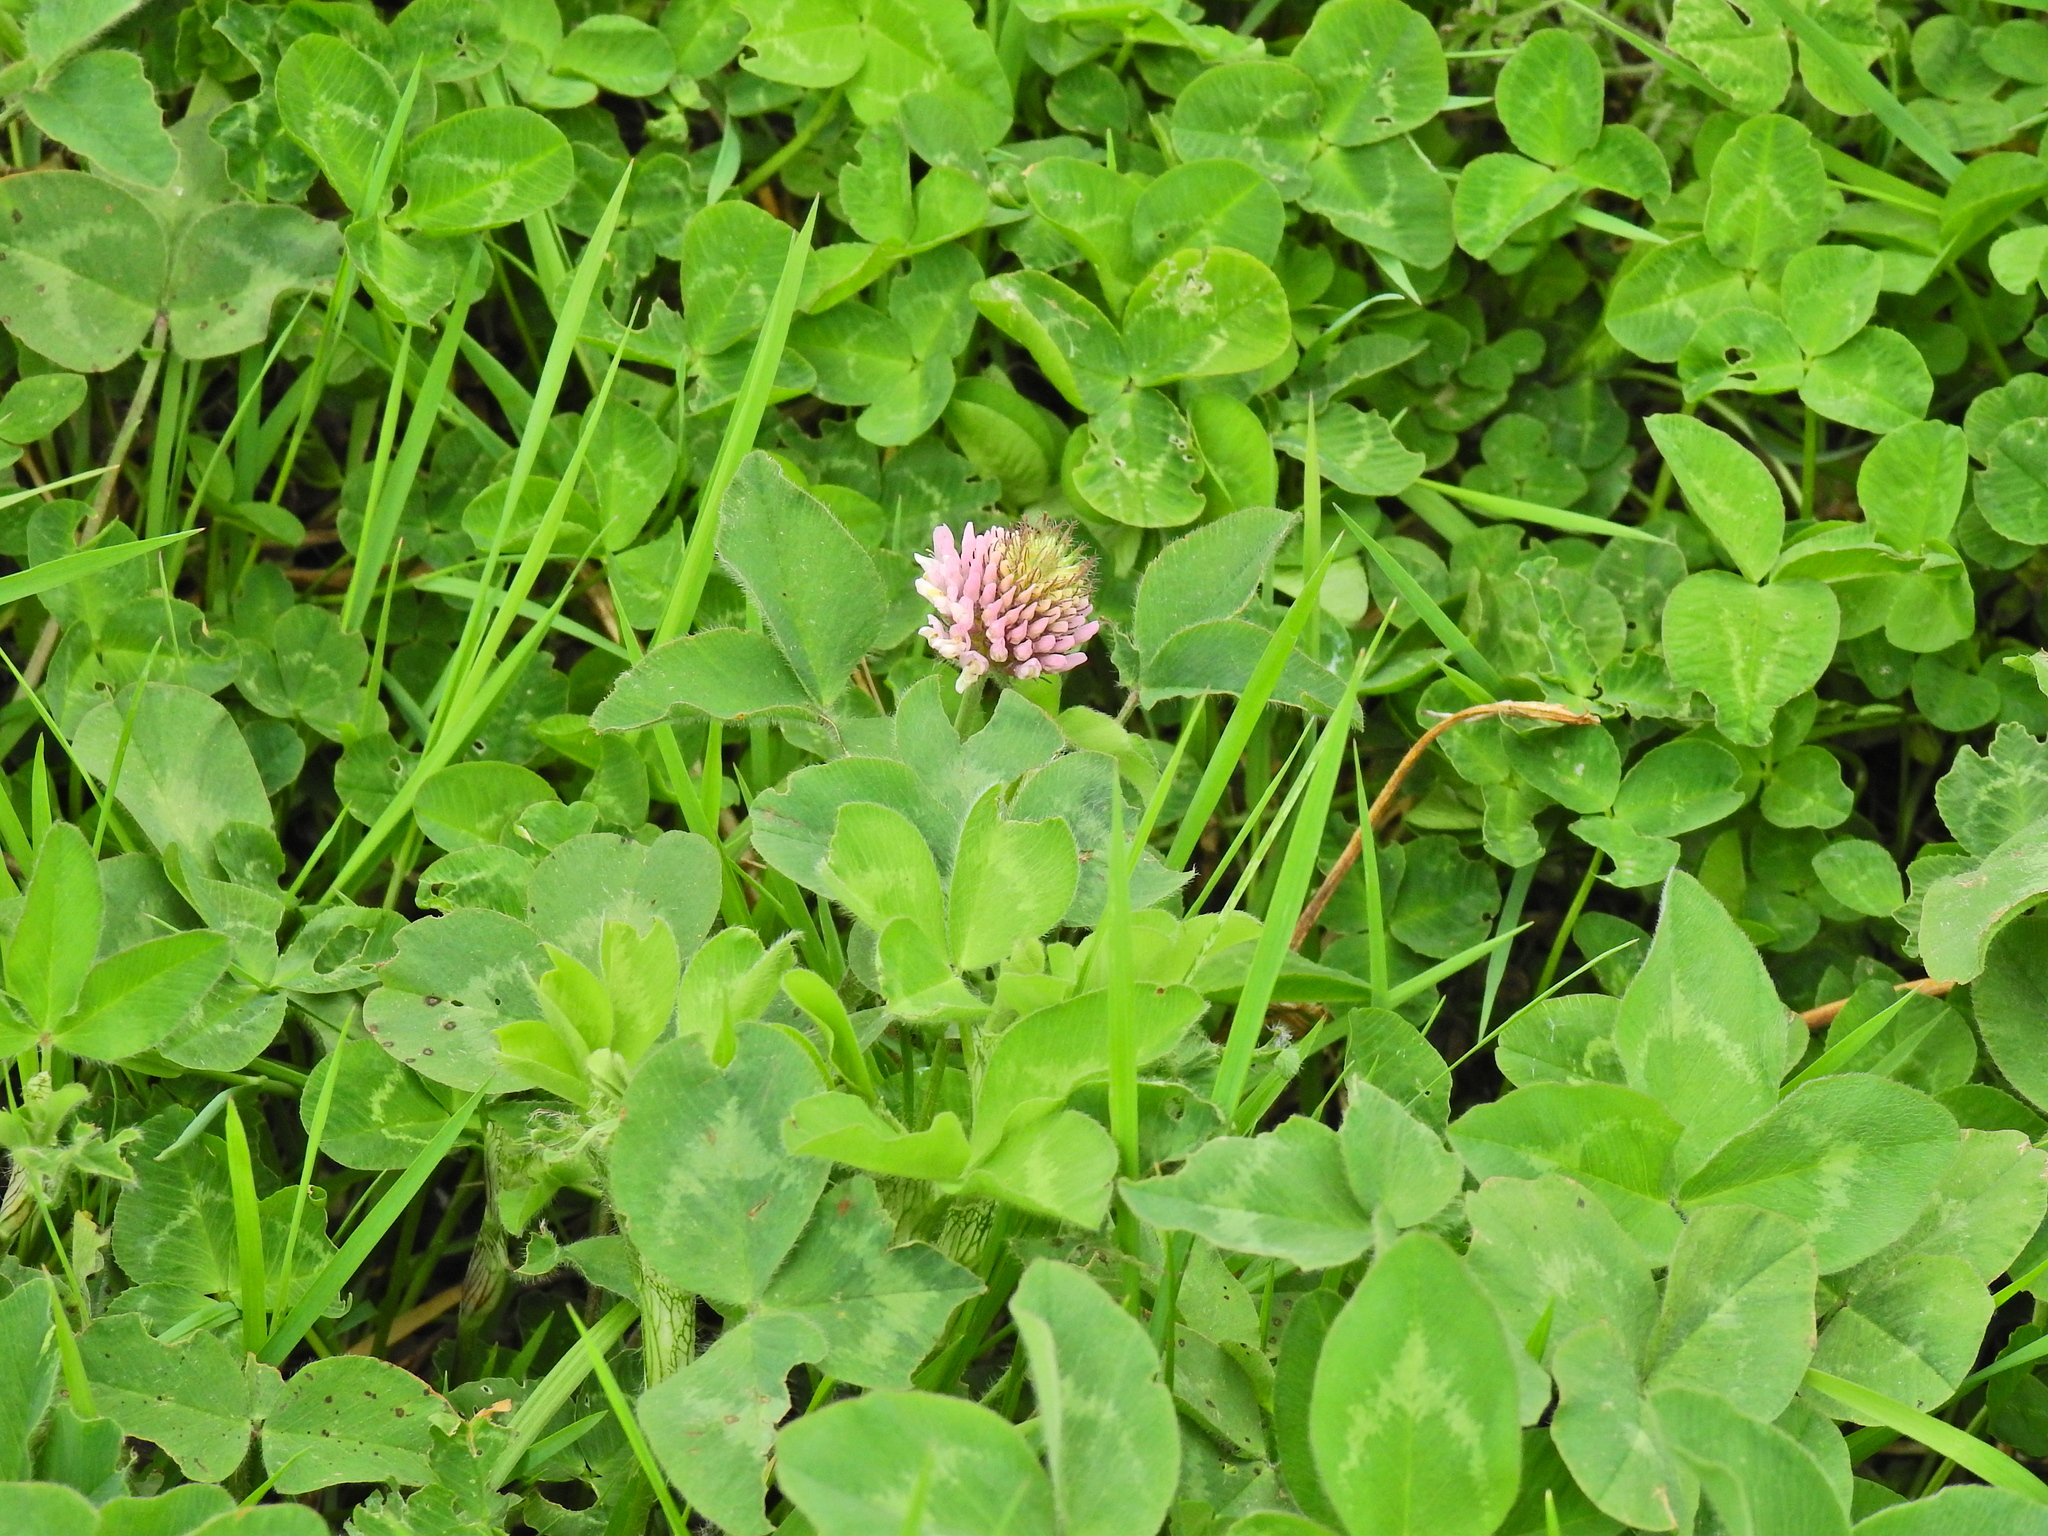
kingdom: Plantae
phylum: Tracheophyta
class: Magnoliopsida
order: Fabales
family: Fabaceae
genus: Trifolium
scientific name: Trifolium pratense
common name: Red clover
